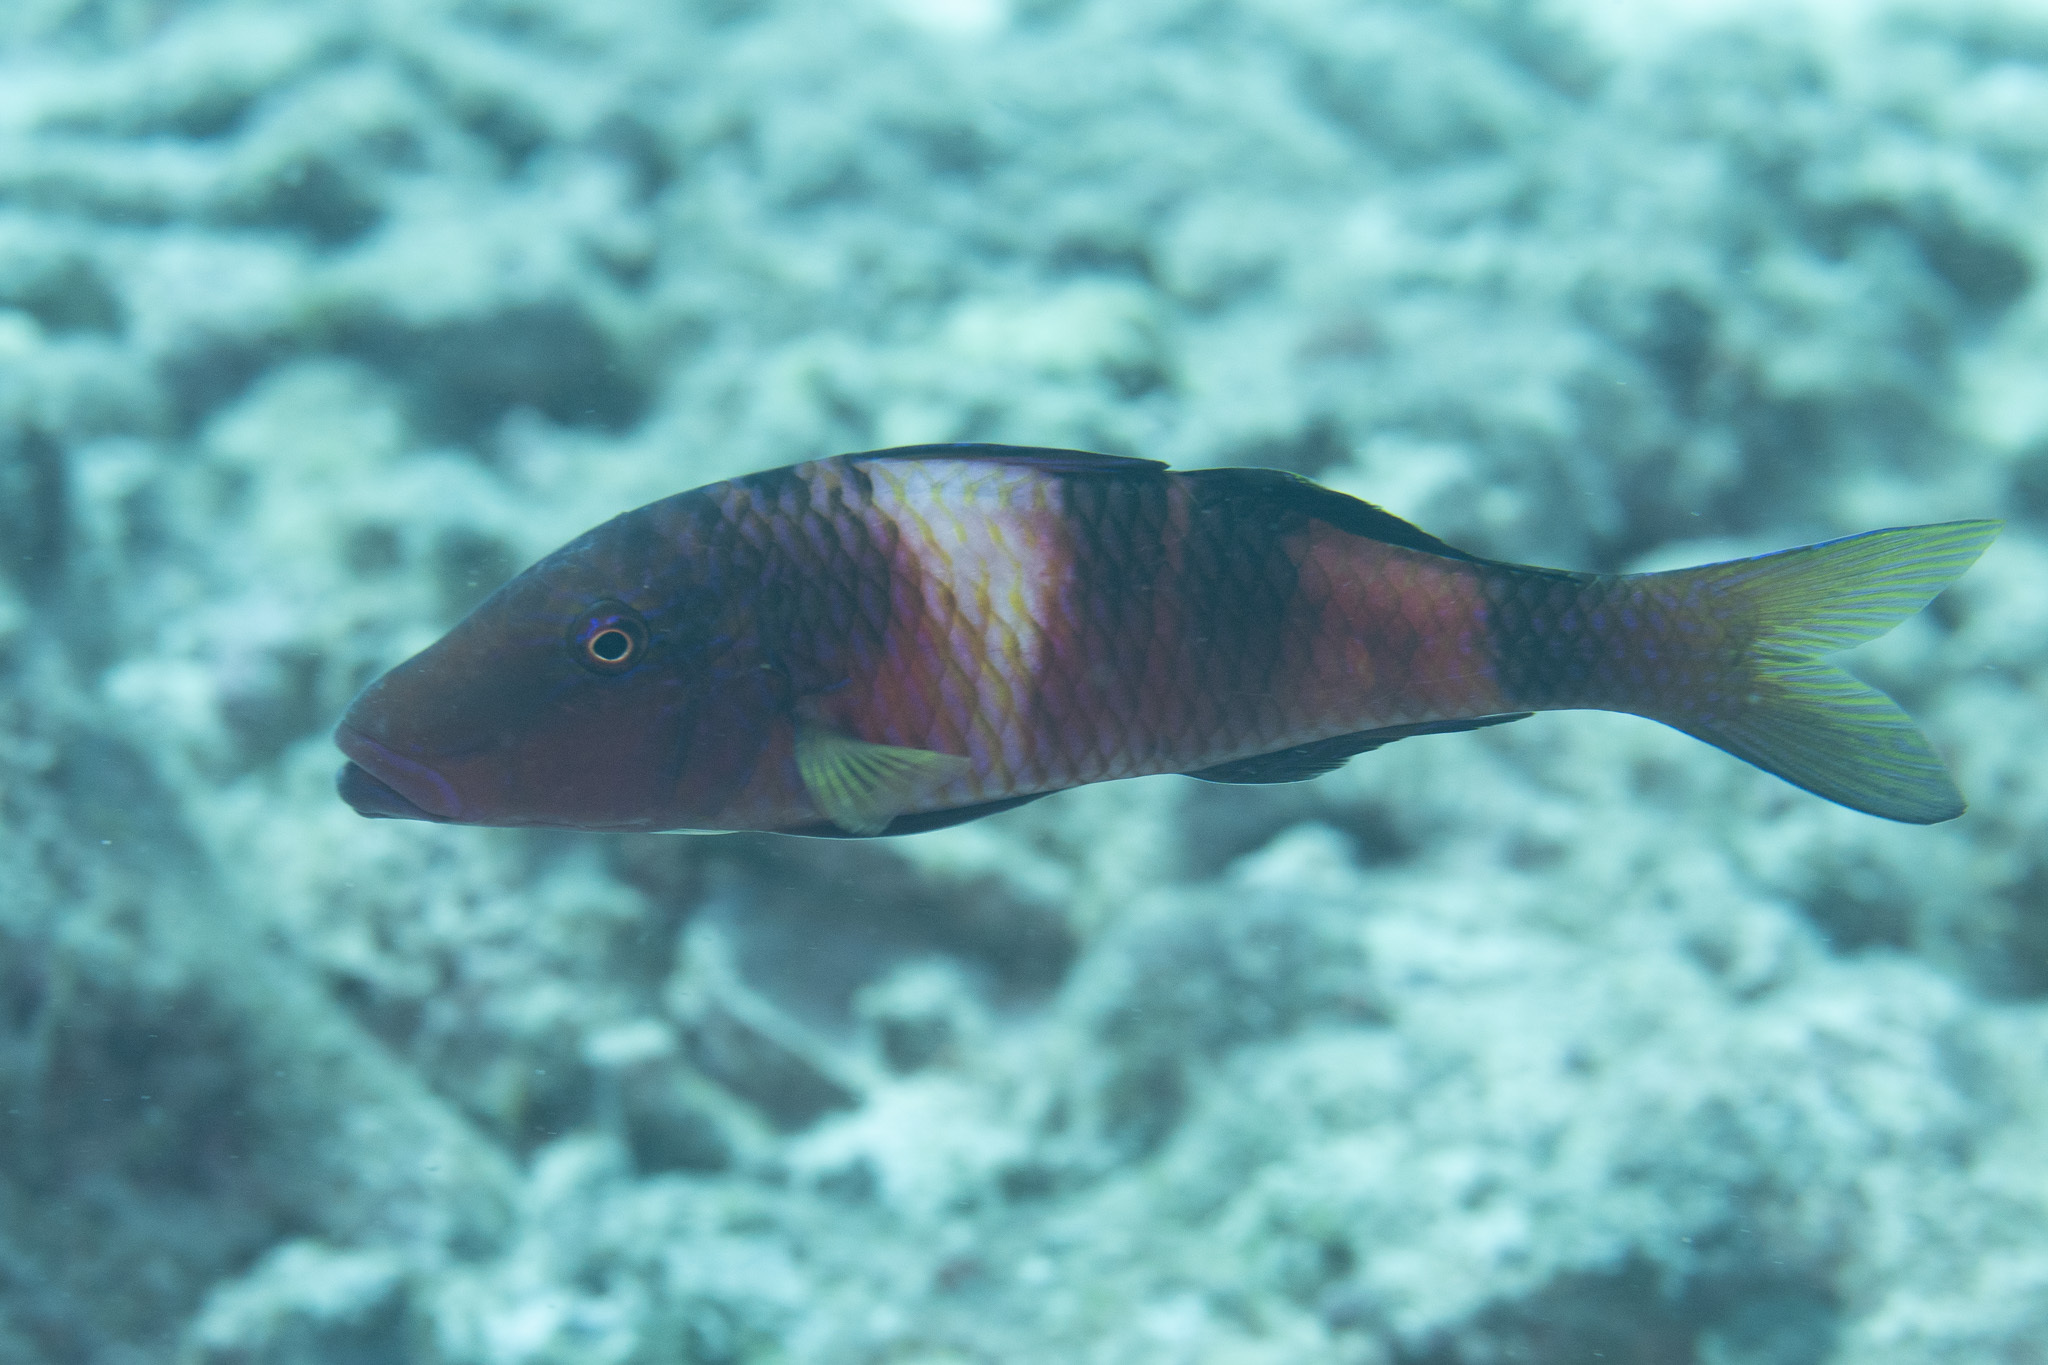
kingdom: Animalia
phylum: Chordata
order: Perciformes
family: Mullidae
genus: Parupeneus
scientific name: Parupeneus multifasciatus
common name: Manybar goatfish
